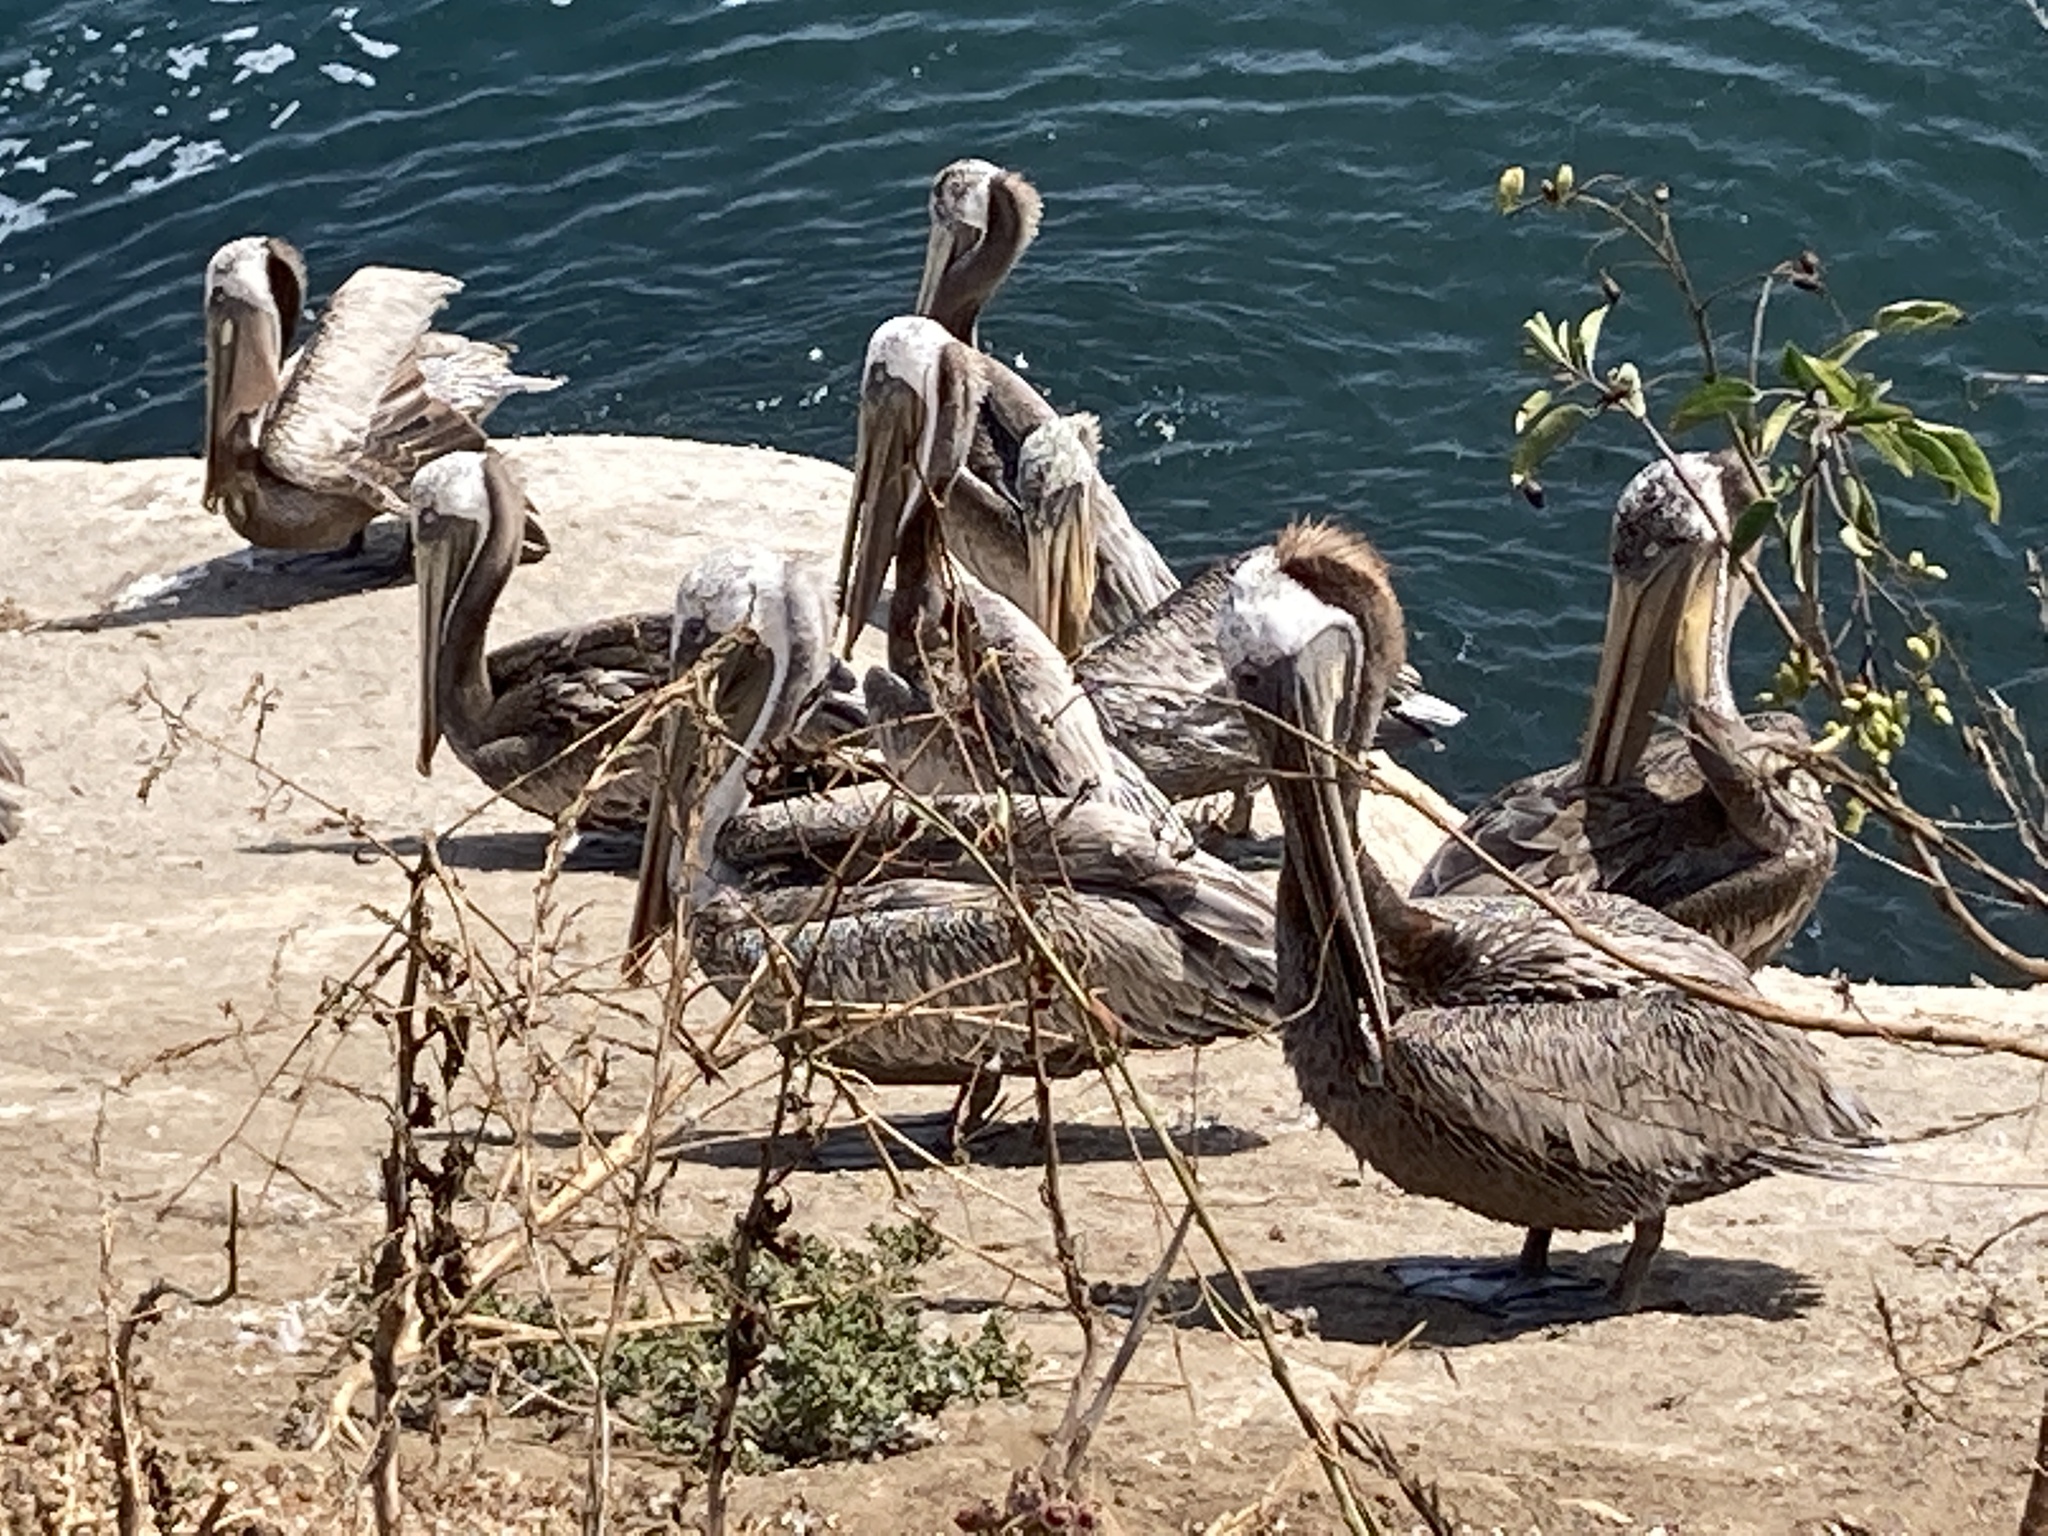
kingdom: Animalia
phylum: Chordata
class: Aves
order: Pelecaniformes
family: Pelecanidae
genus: Pelecanus
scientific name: Pelecanus occidentalis
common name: Brown pelican
